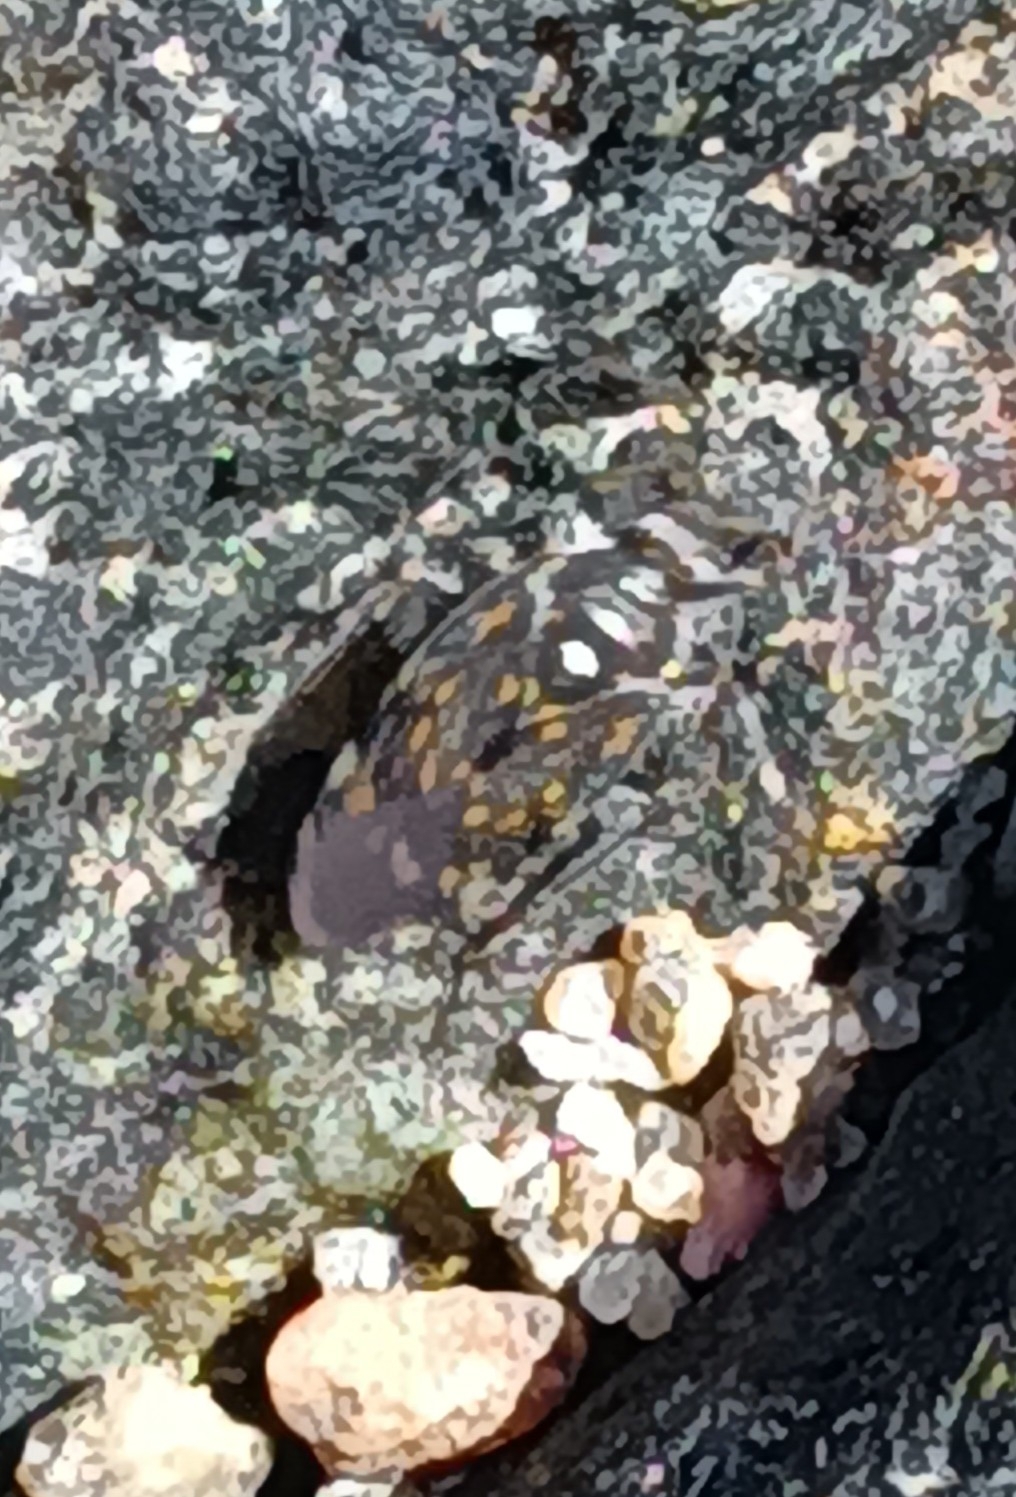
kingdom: Animalia
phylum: Arthropoda
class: Insecta
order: Hemiptera
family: Saldidae
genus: Pentacora
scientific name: Pentacora
